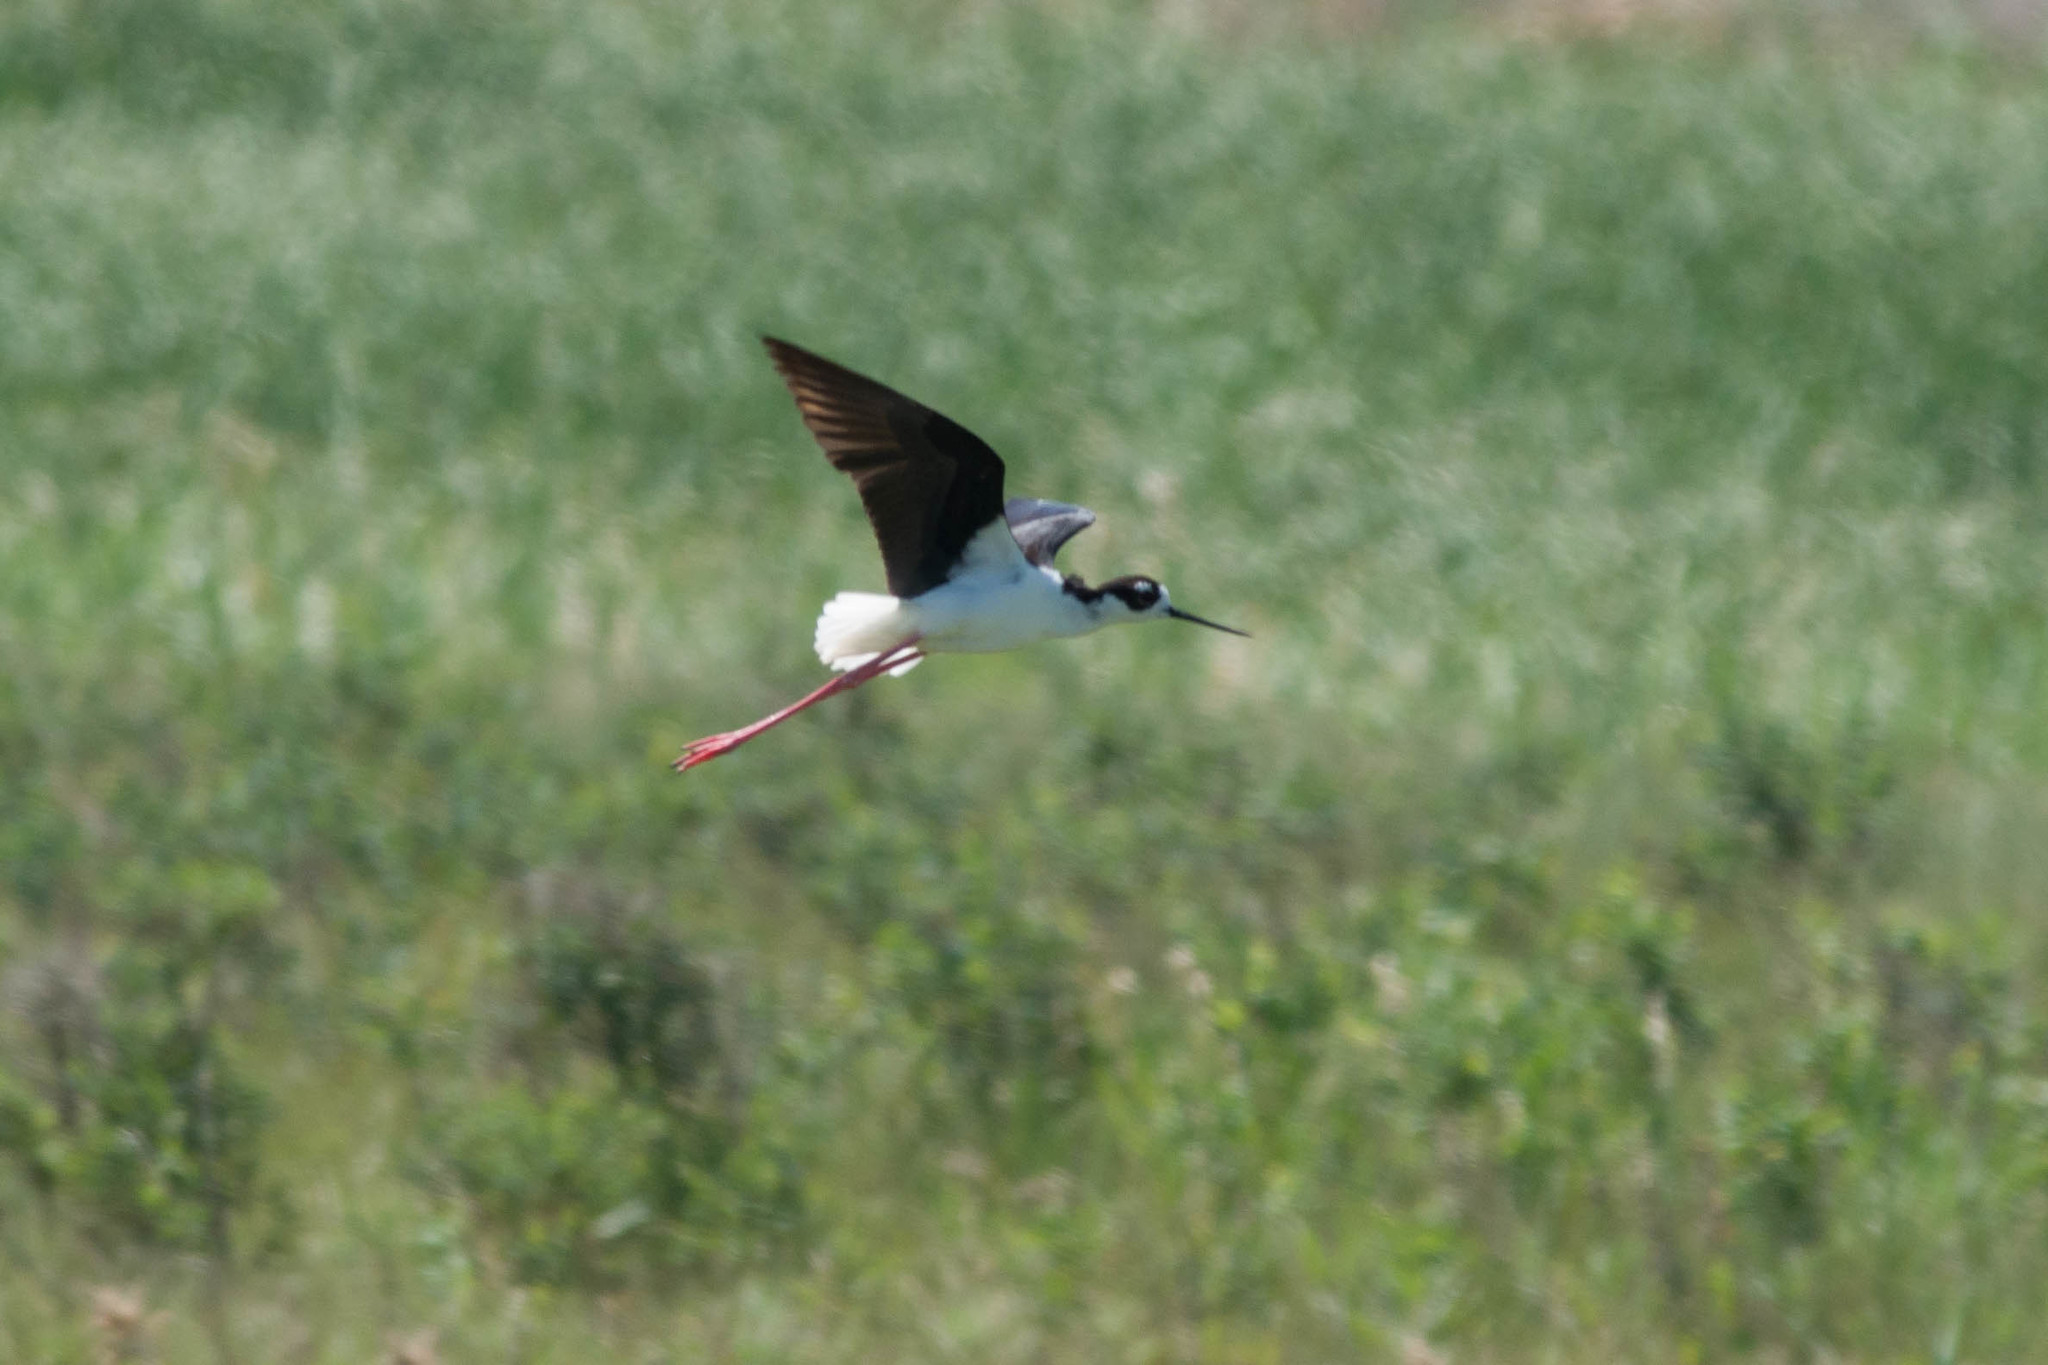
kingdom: Animalia
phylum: Chordata
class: Aves
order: Charadriiformes
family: Recurvirostridae
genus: Himantopus
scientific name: Himantopus mexicanus
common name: Black-necked stilt
